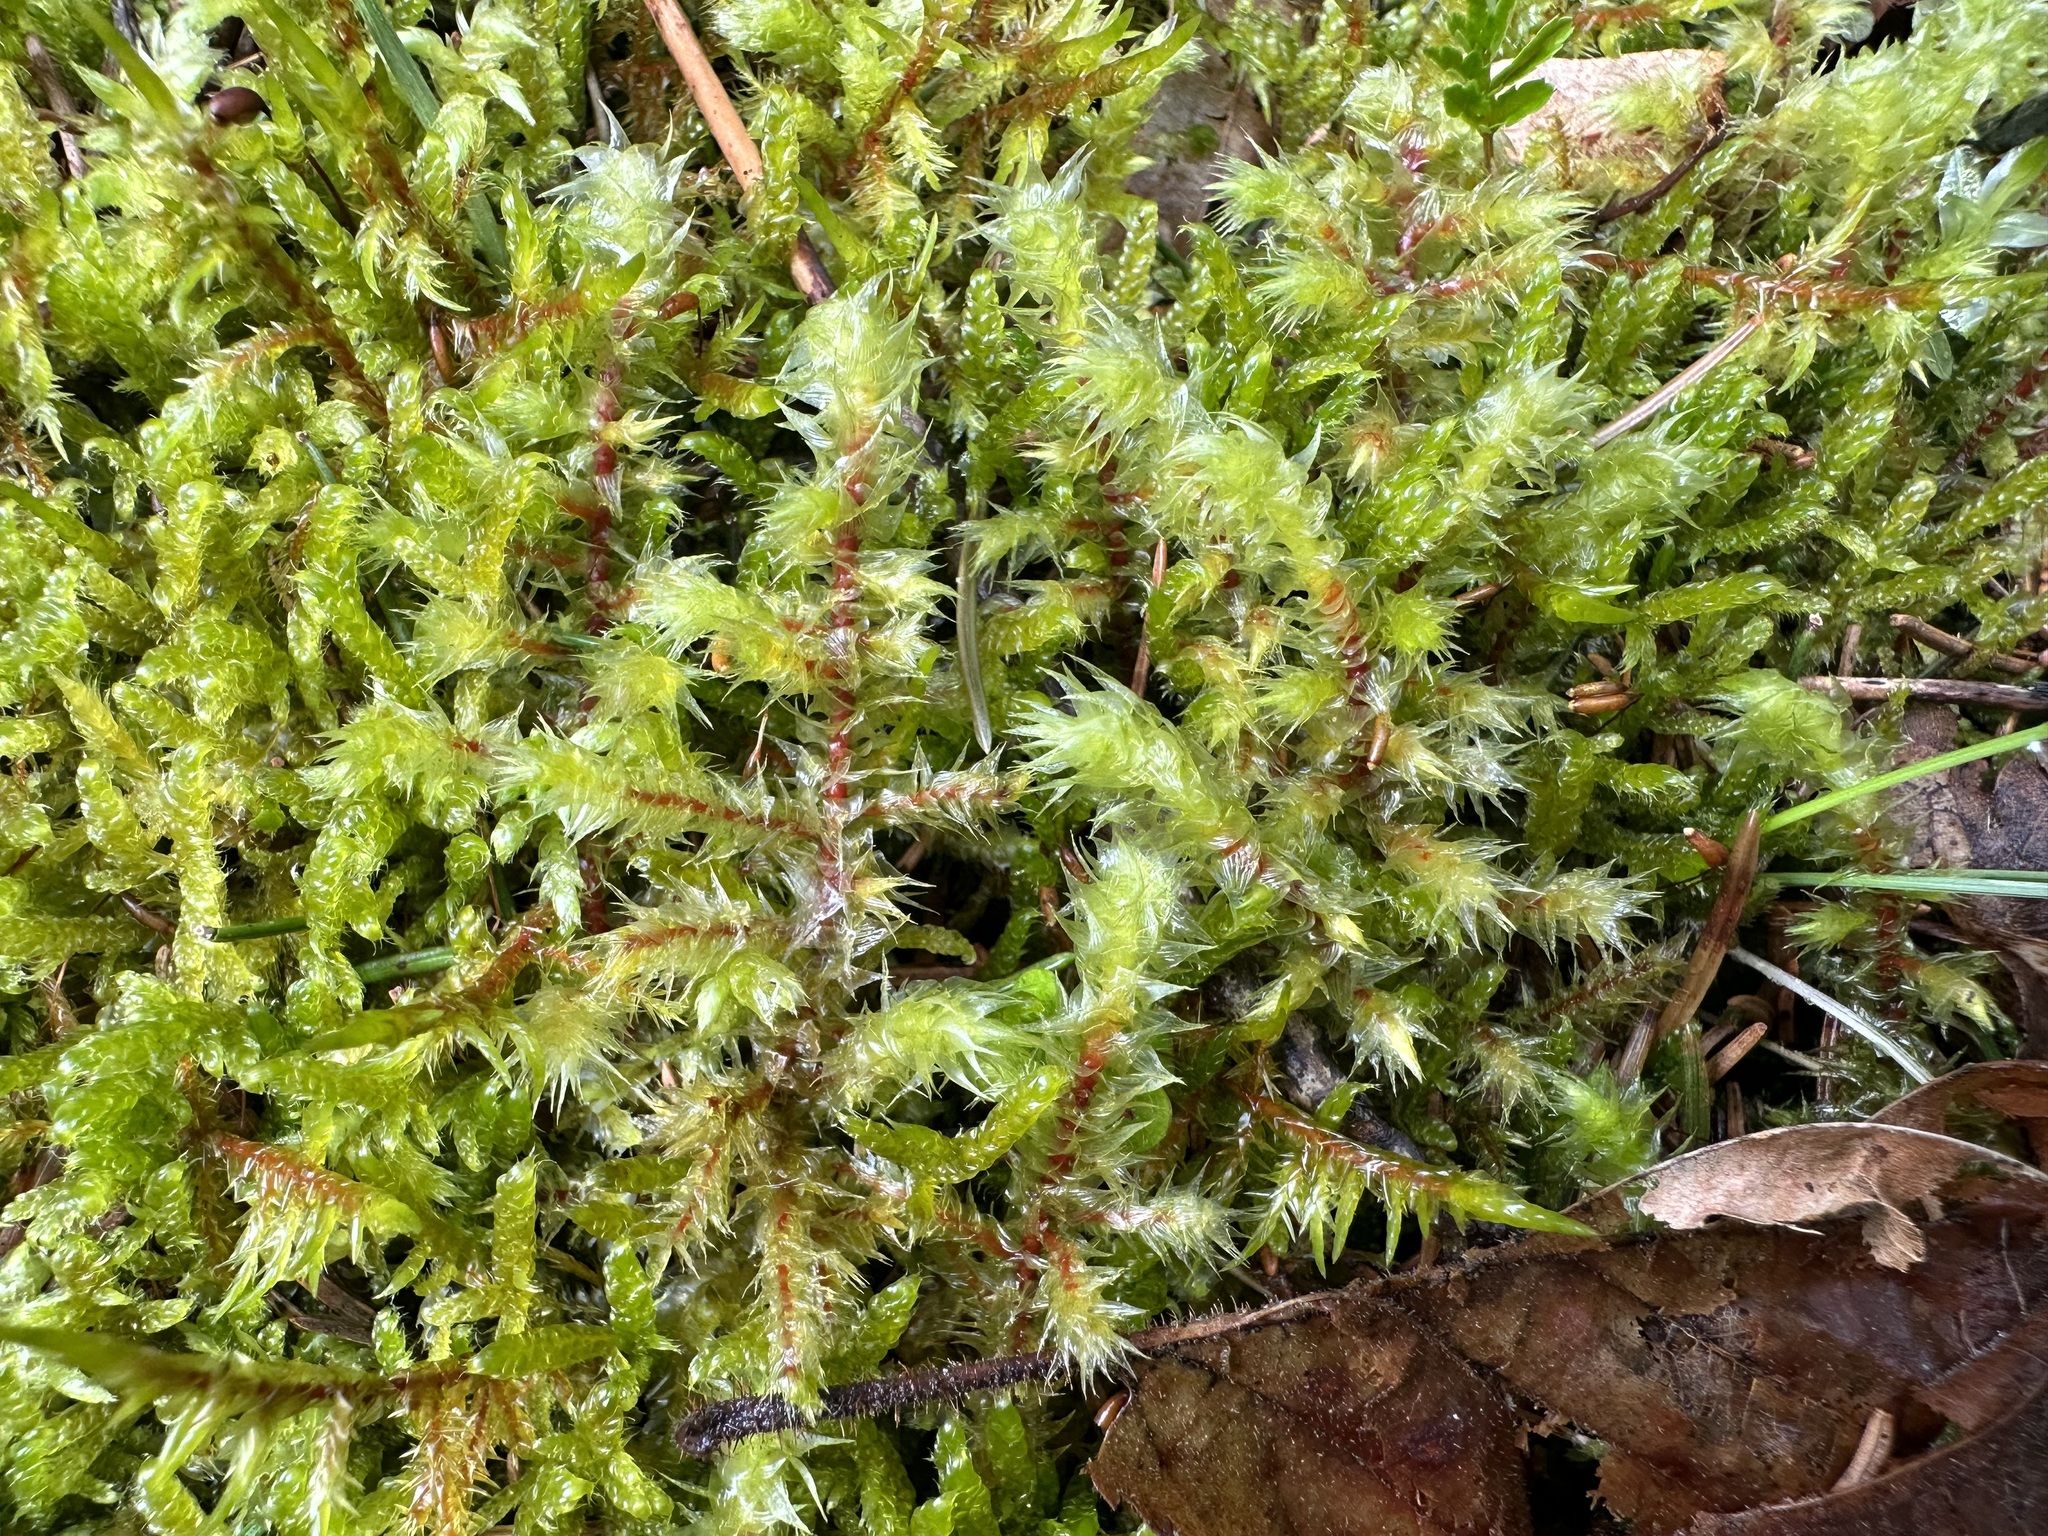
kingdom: Plantae
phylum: Bryophyta
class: Bryopsida
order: Hypnales
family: Hylocomiaceae
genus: Hylocomiadelphus
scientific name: Hylocomiadelphus triquetrus
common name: Rough goose neck moss
